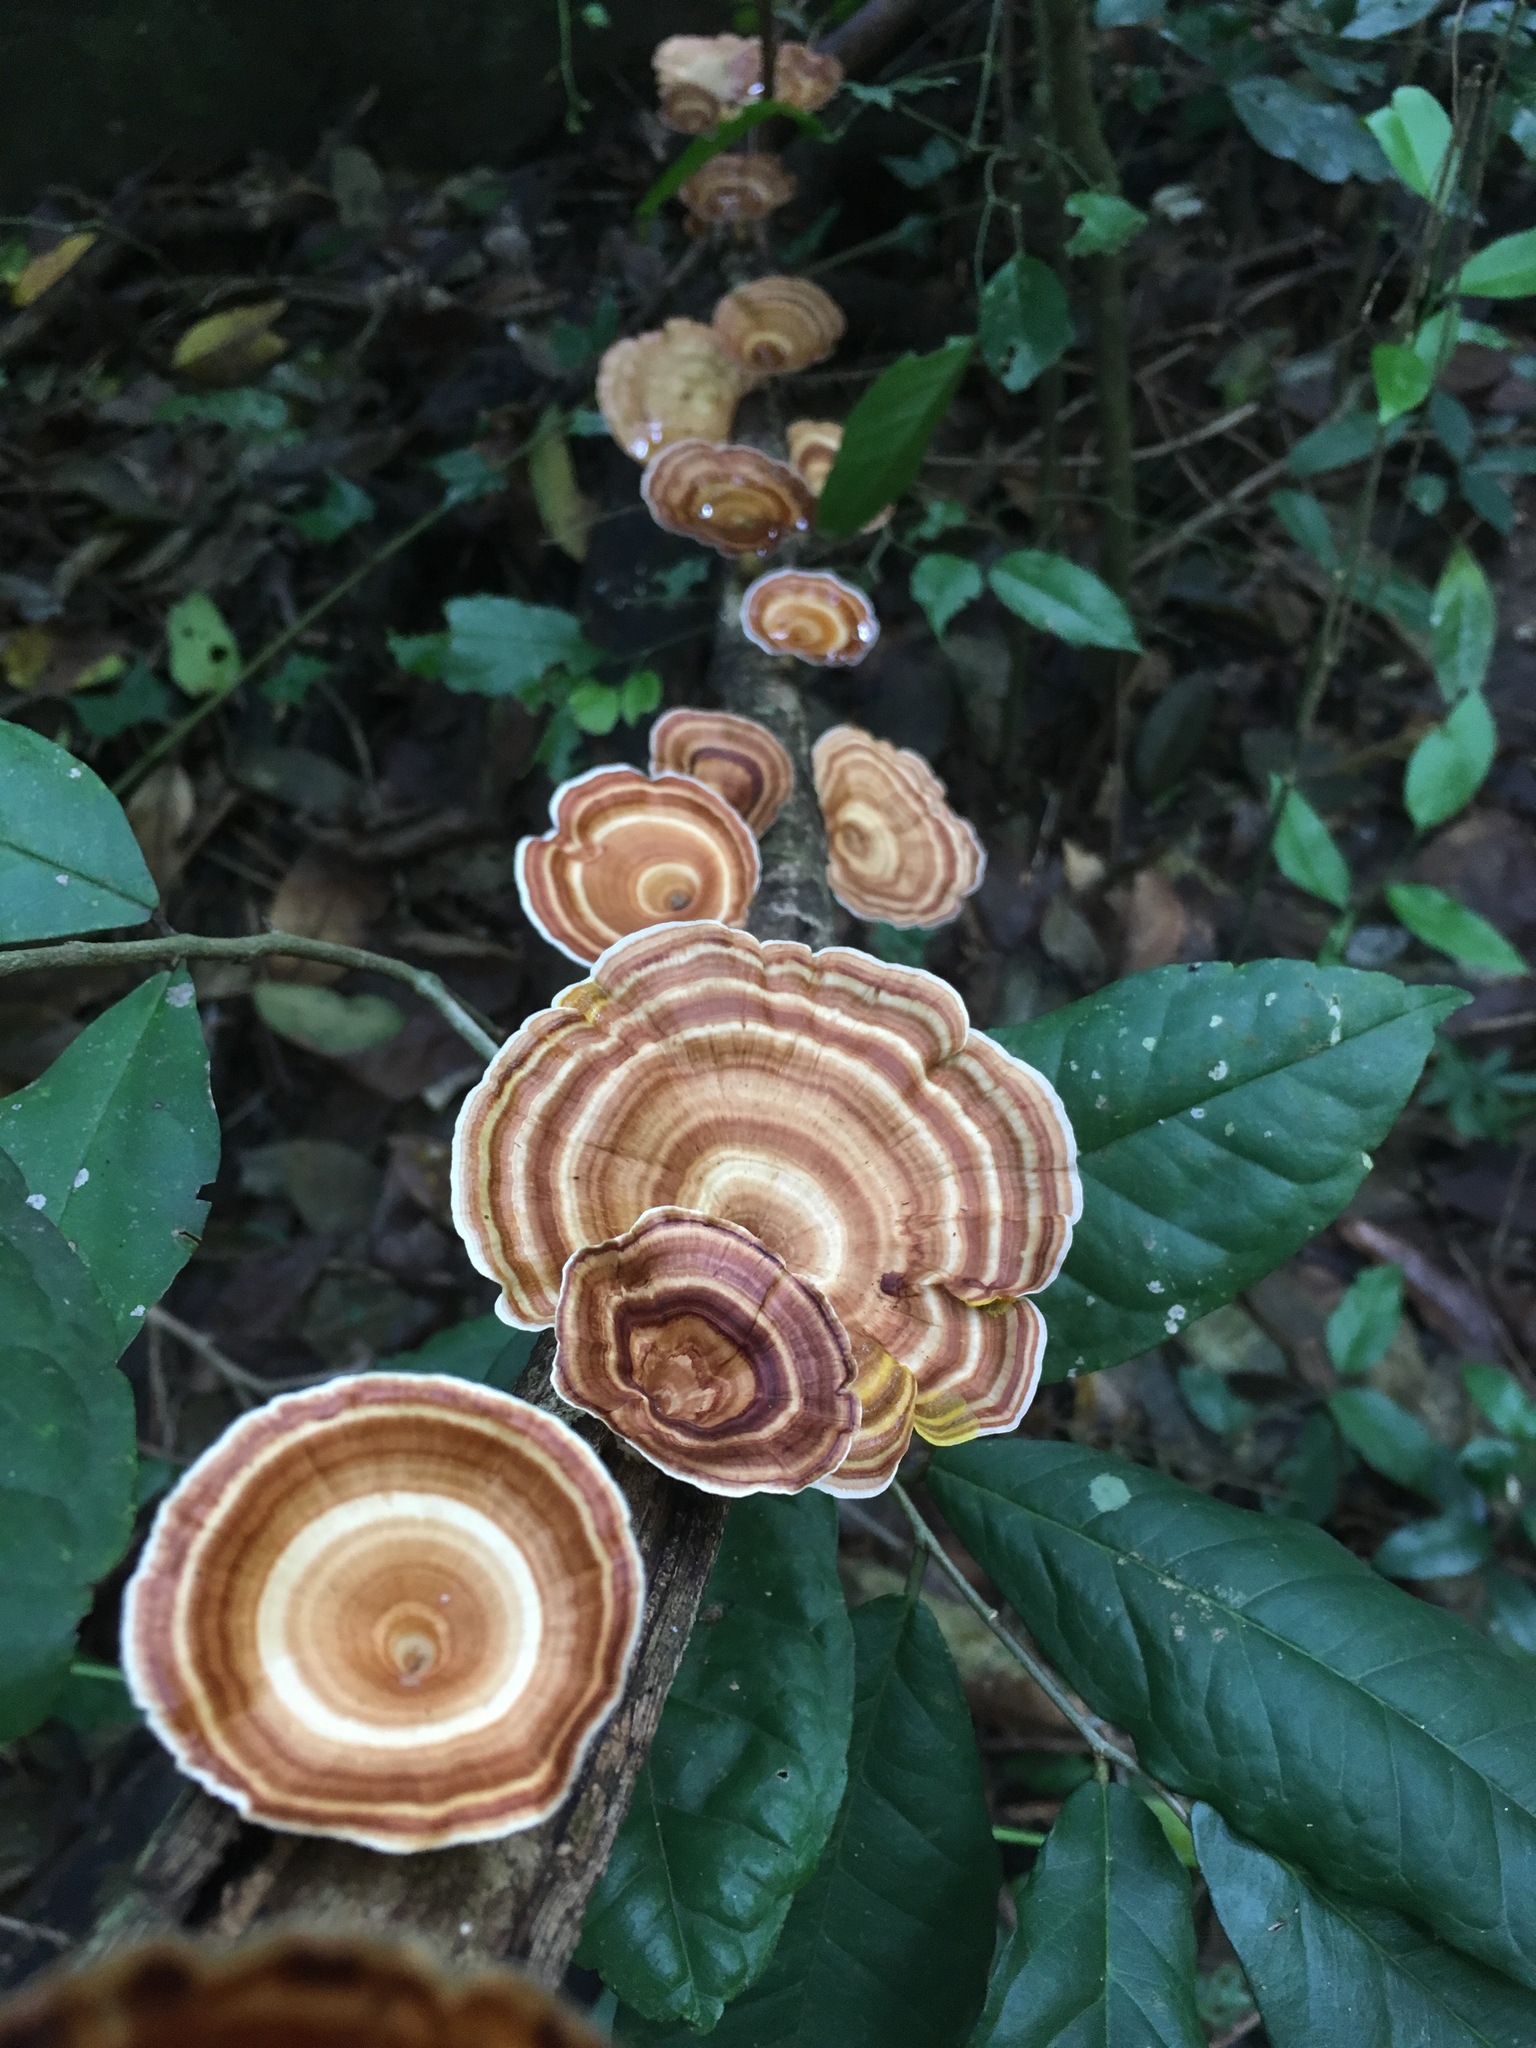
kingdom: Fungi
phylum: Basidiomycota
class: Agaricomycetes
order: Polyporales
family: Polyporaceae
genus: Microporus
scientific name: Microporus xanthopus
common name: Yellow-stemmed micropore
